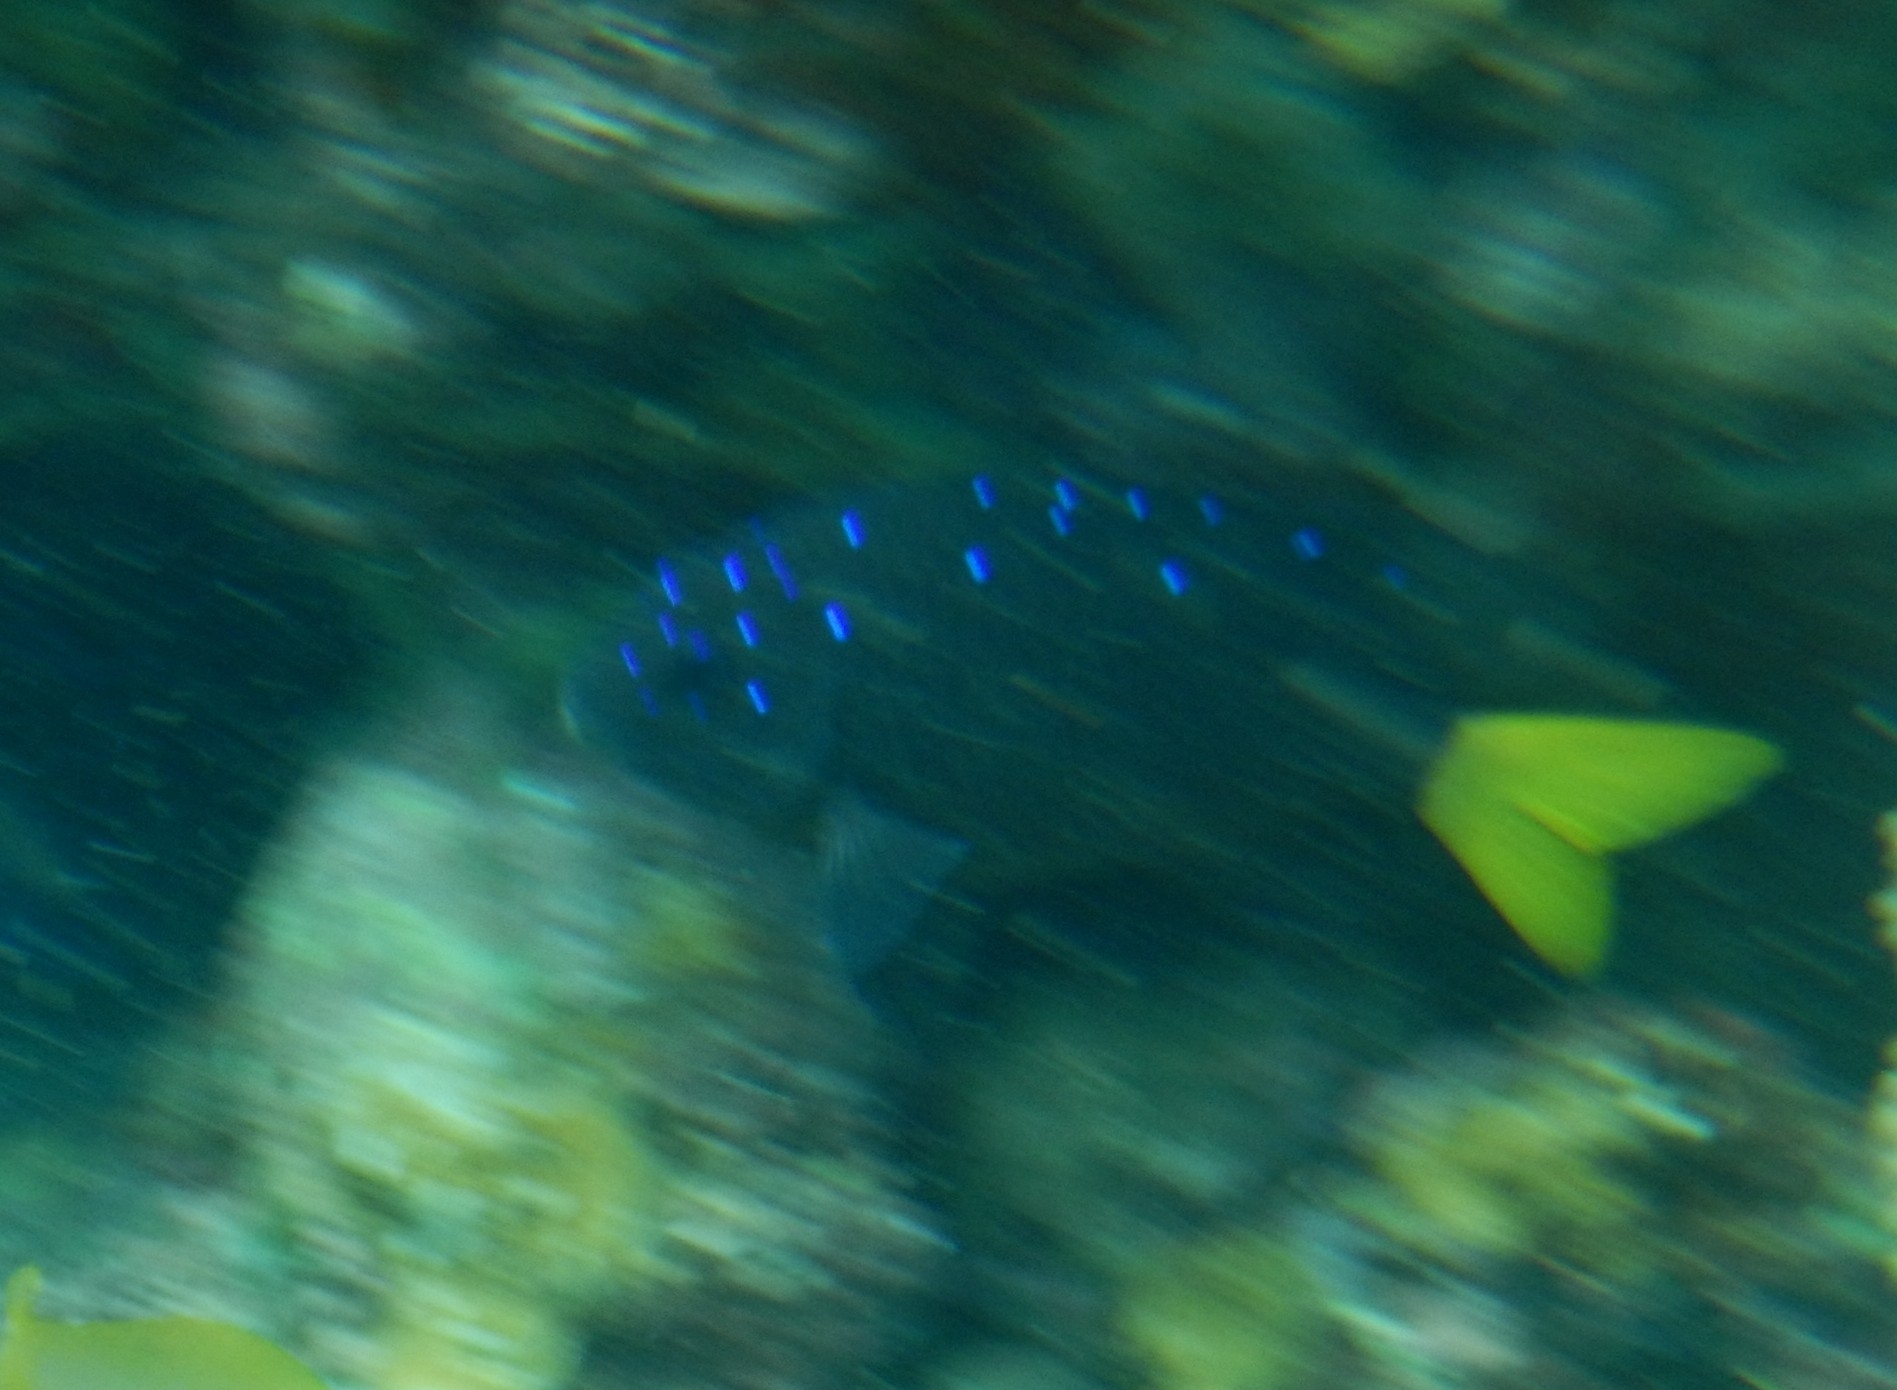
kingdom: Animalia
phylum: Chordata
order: Perciformes
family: Pomacentridae
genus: Microspathodon
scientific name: Microspathodon chrysurus
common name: Yellowtail damselfish
